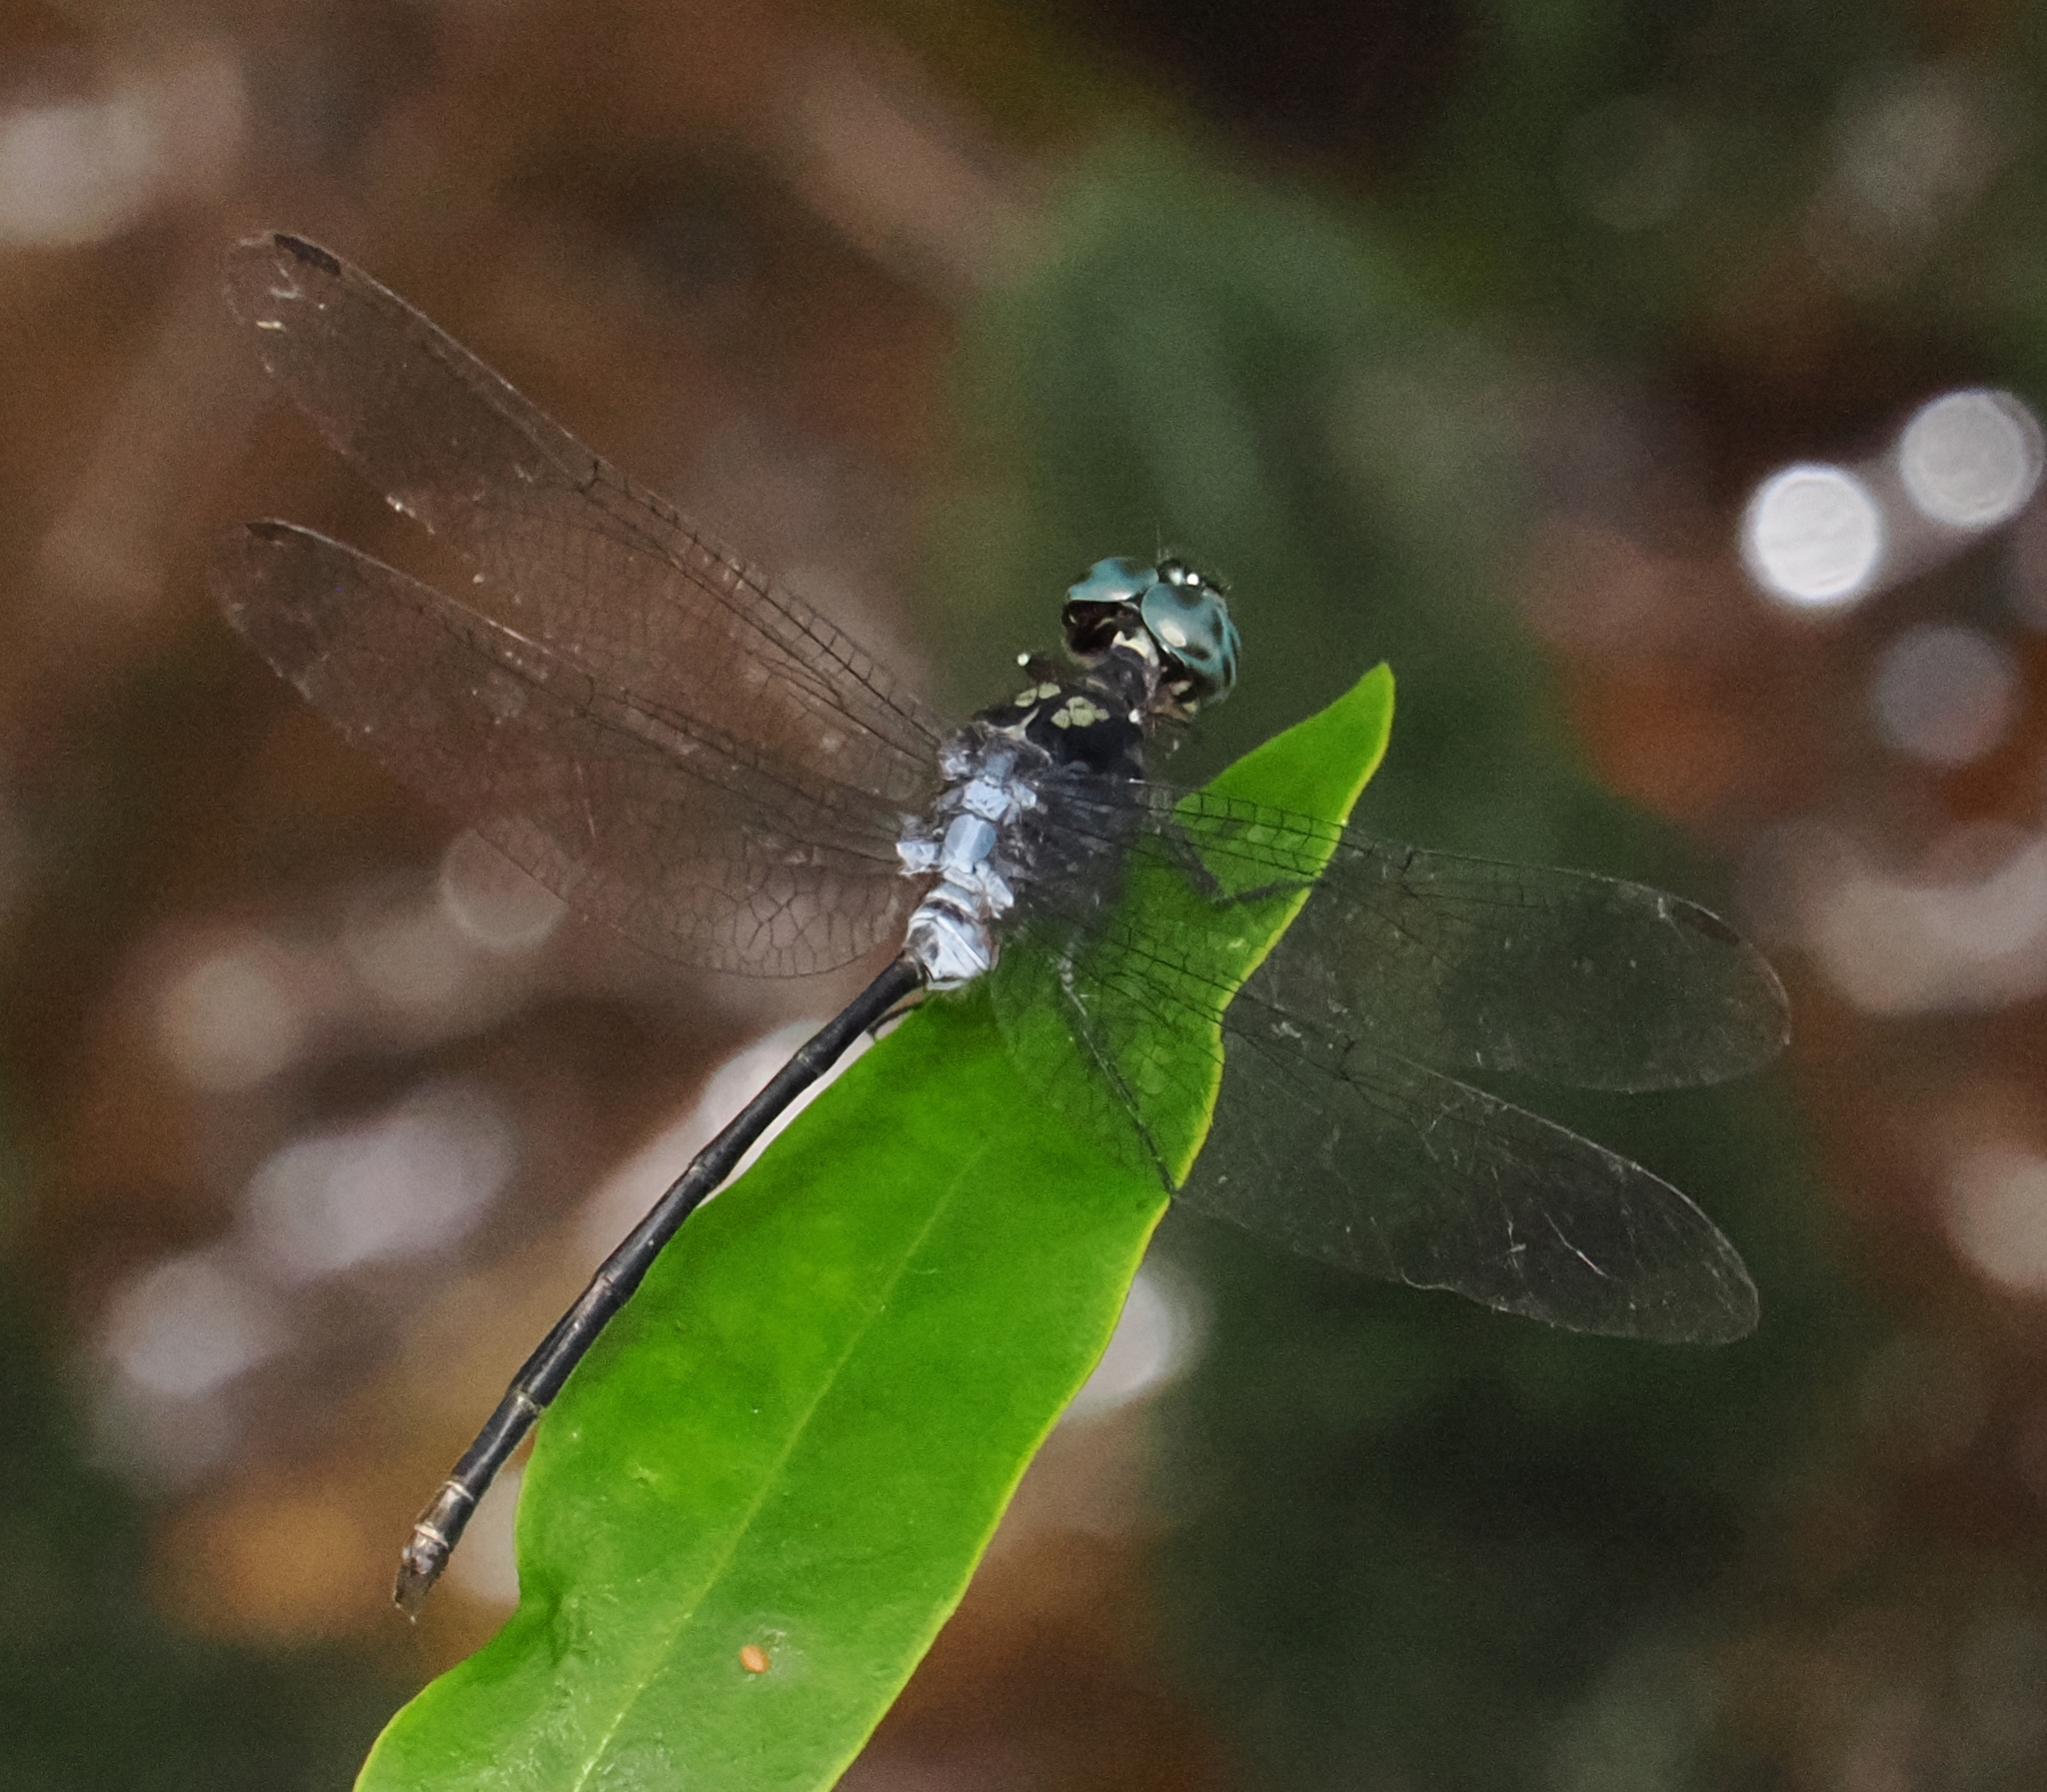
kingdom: Animalia
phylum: Arthropoda
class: Insecta
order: Odonata
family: Libellulidae
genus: Pornothemis
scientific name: Pornothemis starrei
